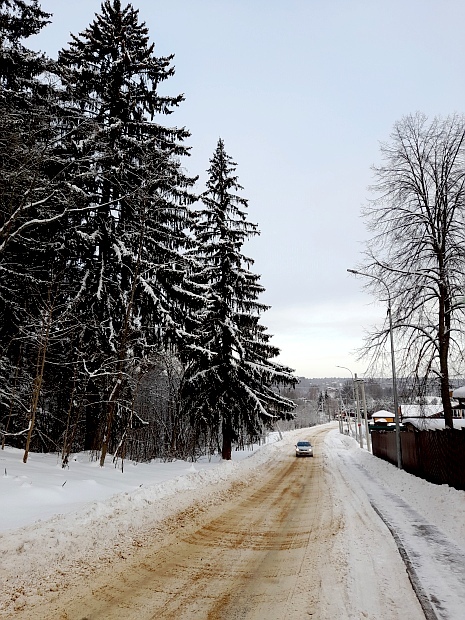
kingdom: Plantae
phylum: Tracheophyta
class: Pinopsida
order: Pinales
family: Pinaceae
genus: Picea
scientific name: Picea abies
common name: Norway spruce
